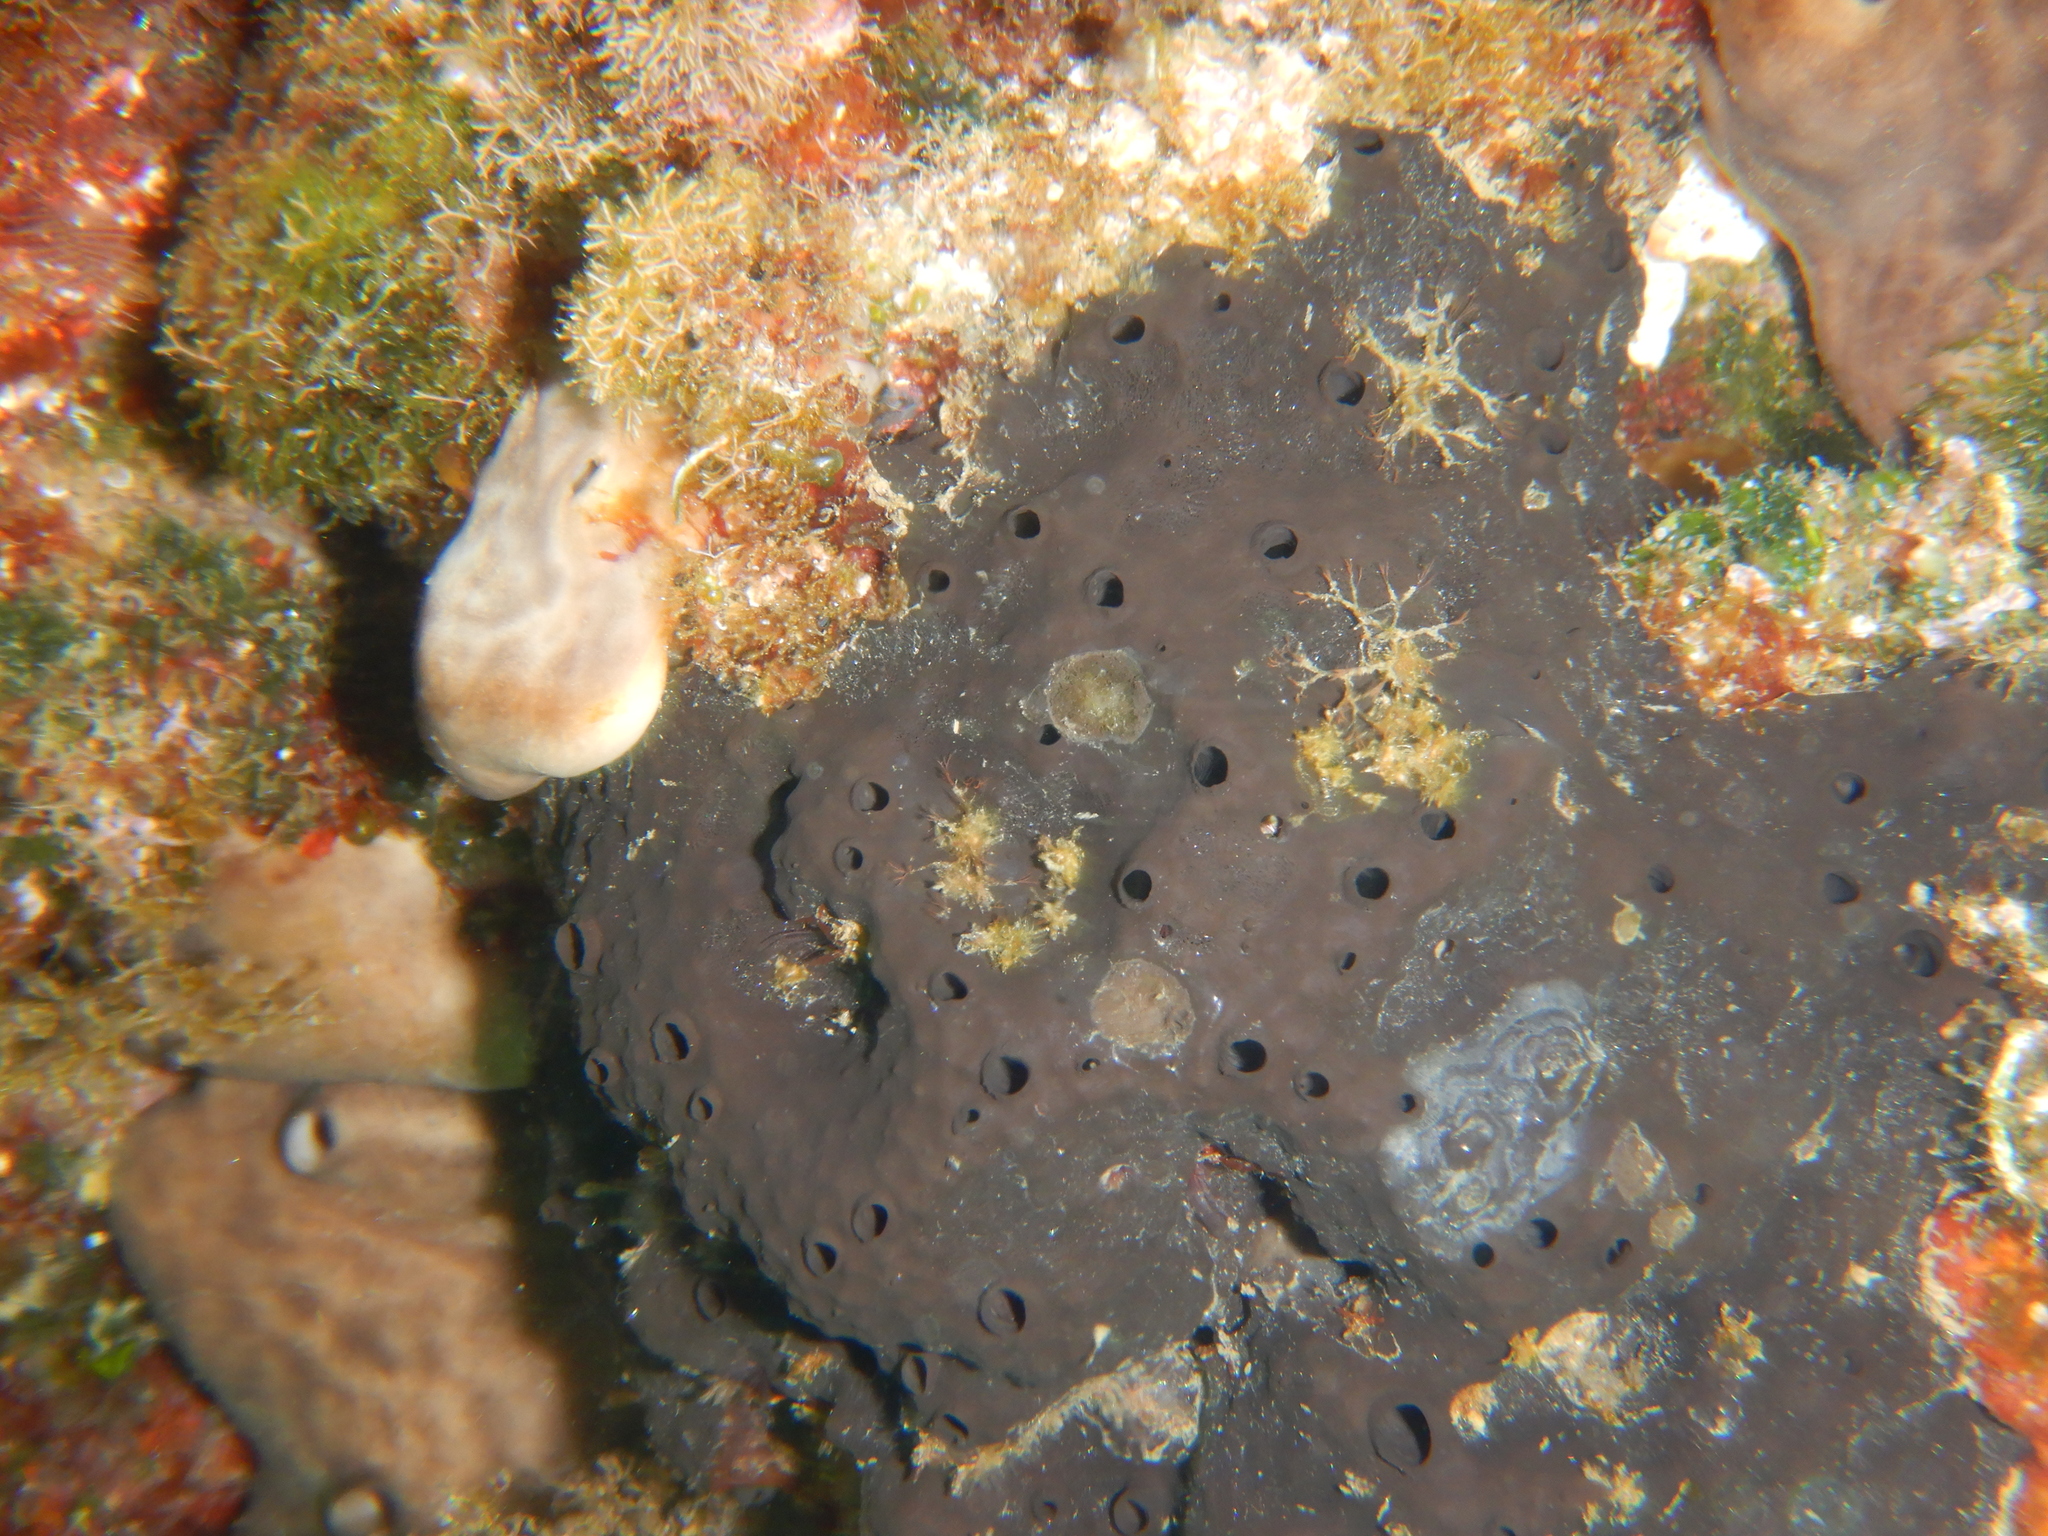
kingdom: Animalia
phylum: Porifera
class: Demospongiae
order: Dictyoceratida
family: Irciniidae
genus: Sarcotragus
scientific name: Sarcotragus spinosulus
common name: Black leather sponge
